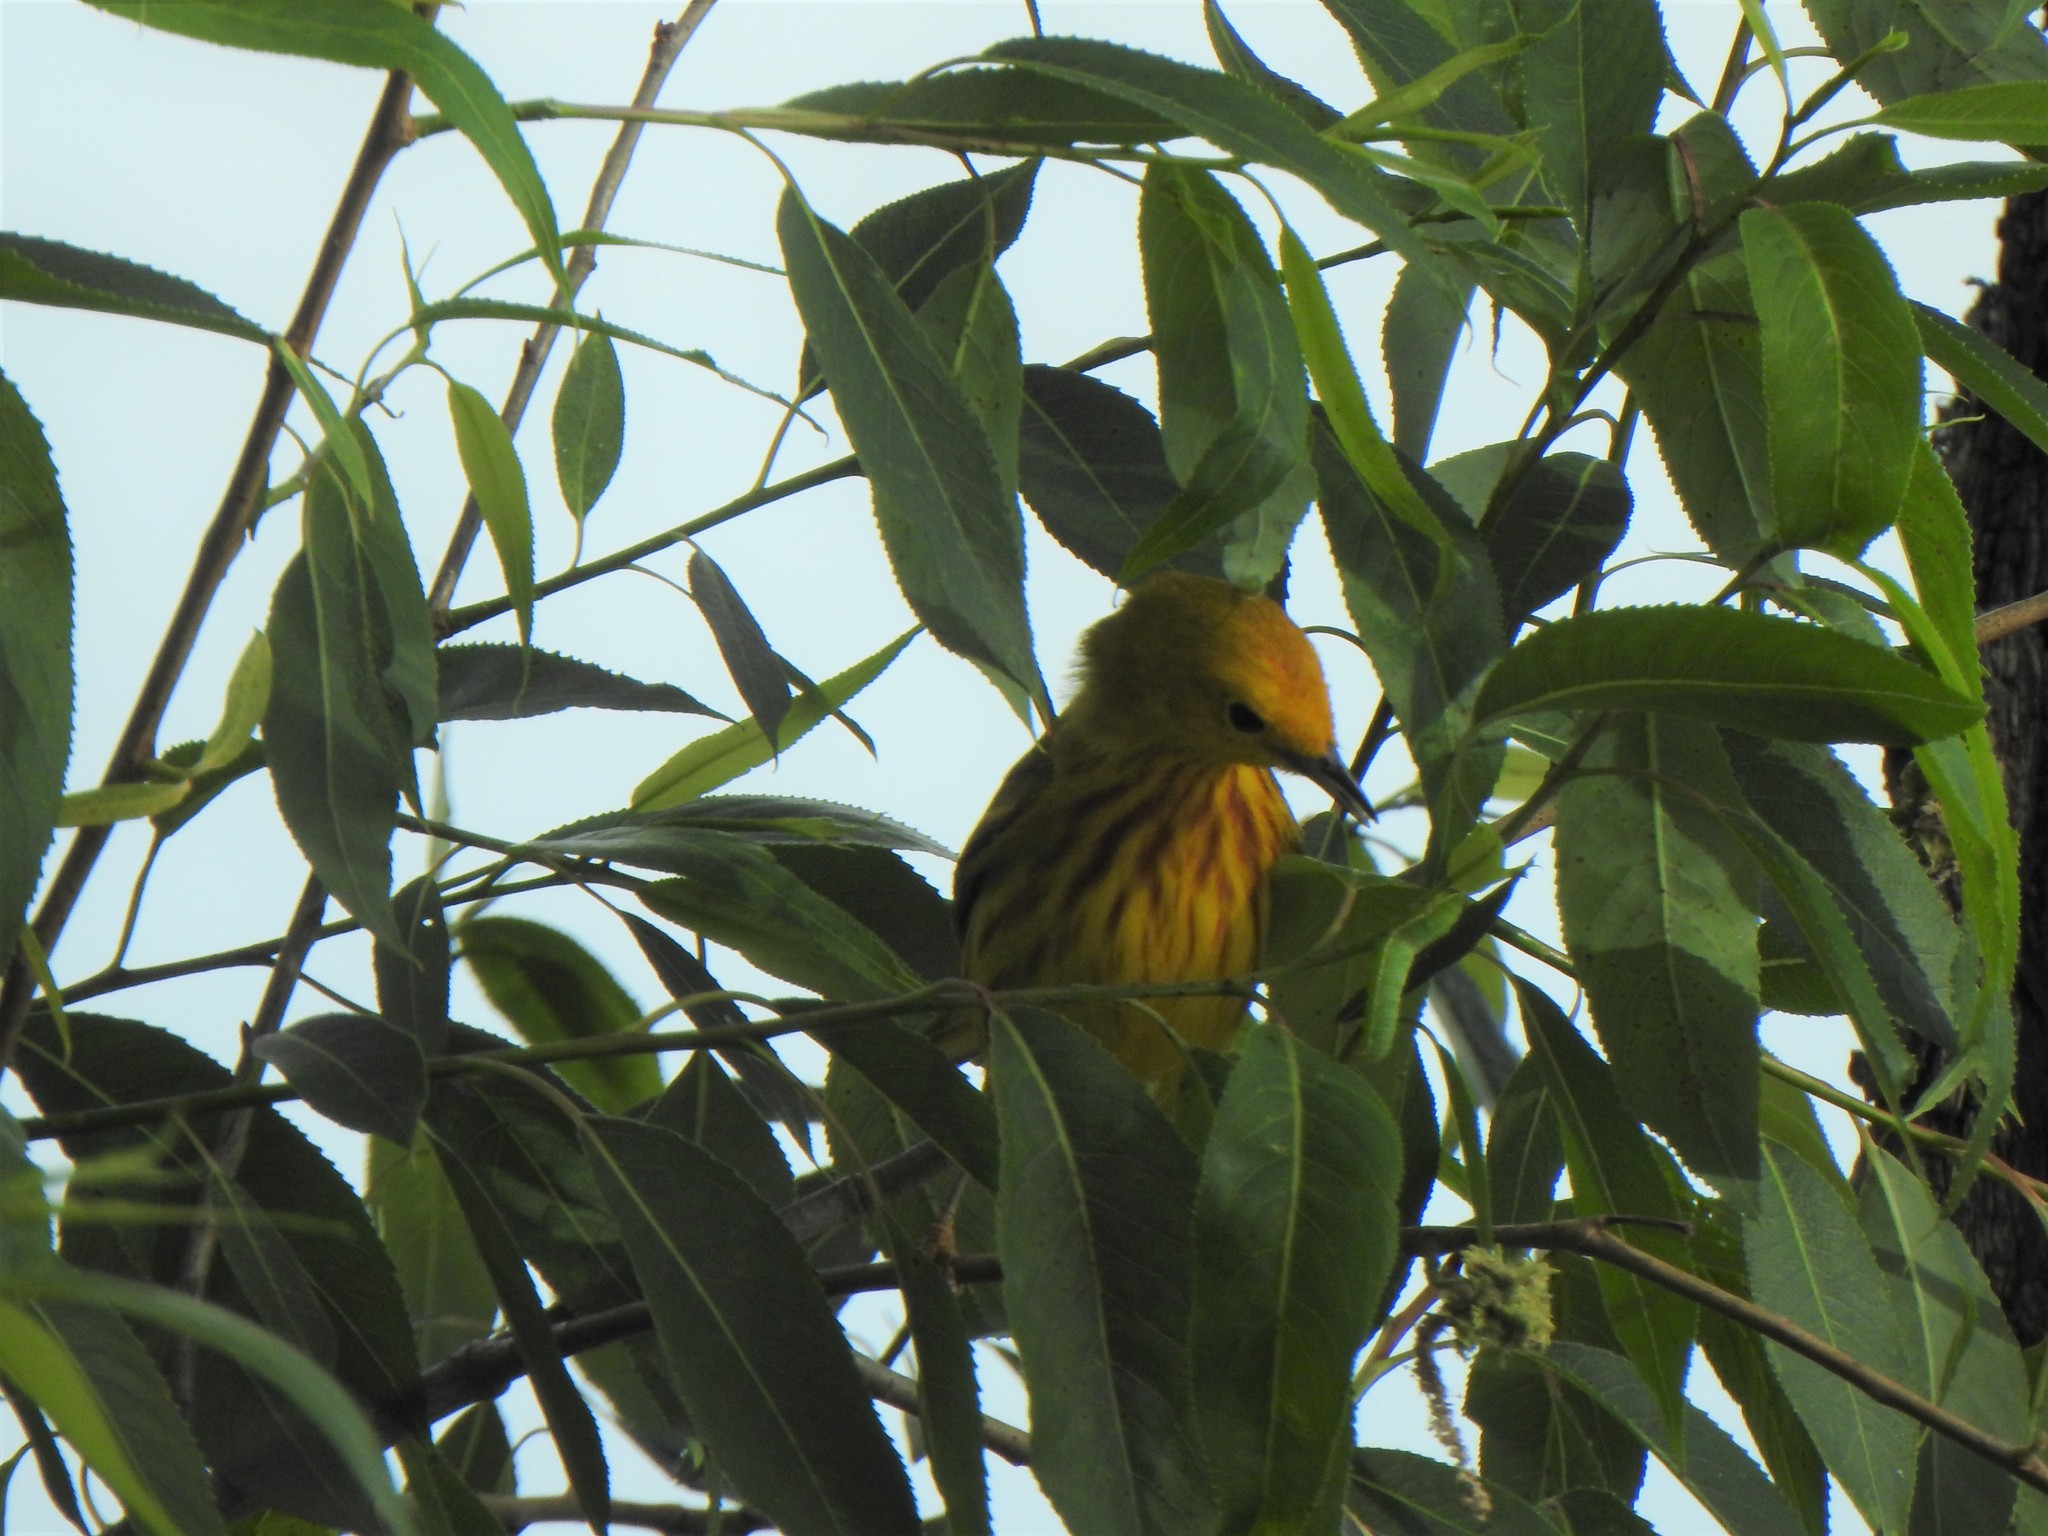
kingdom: Animalia
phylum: Chordata
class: Aves
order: Passeriformes
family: Parulidae
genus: Setophaga
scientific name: Setophaga petechia
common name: Yellow warbler
